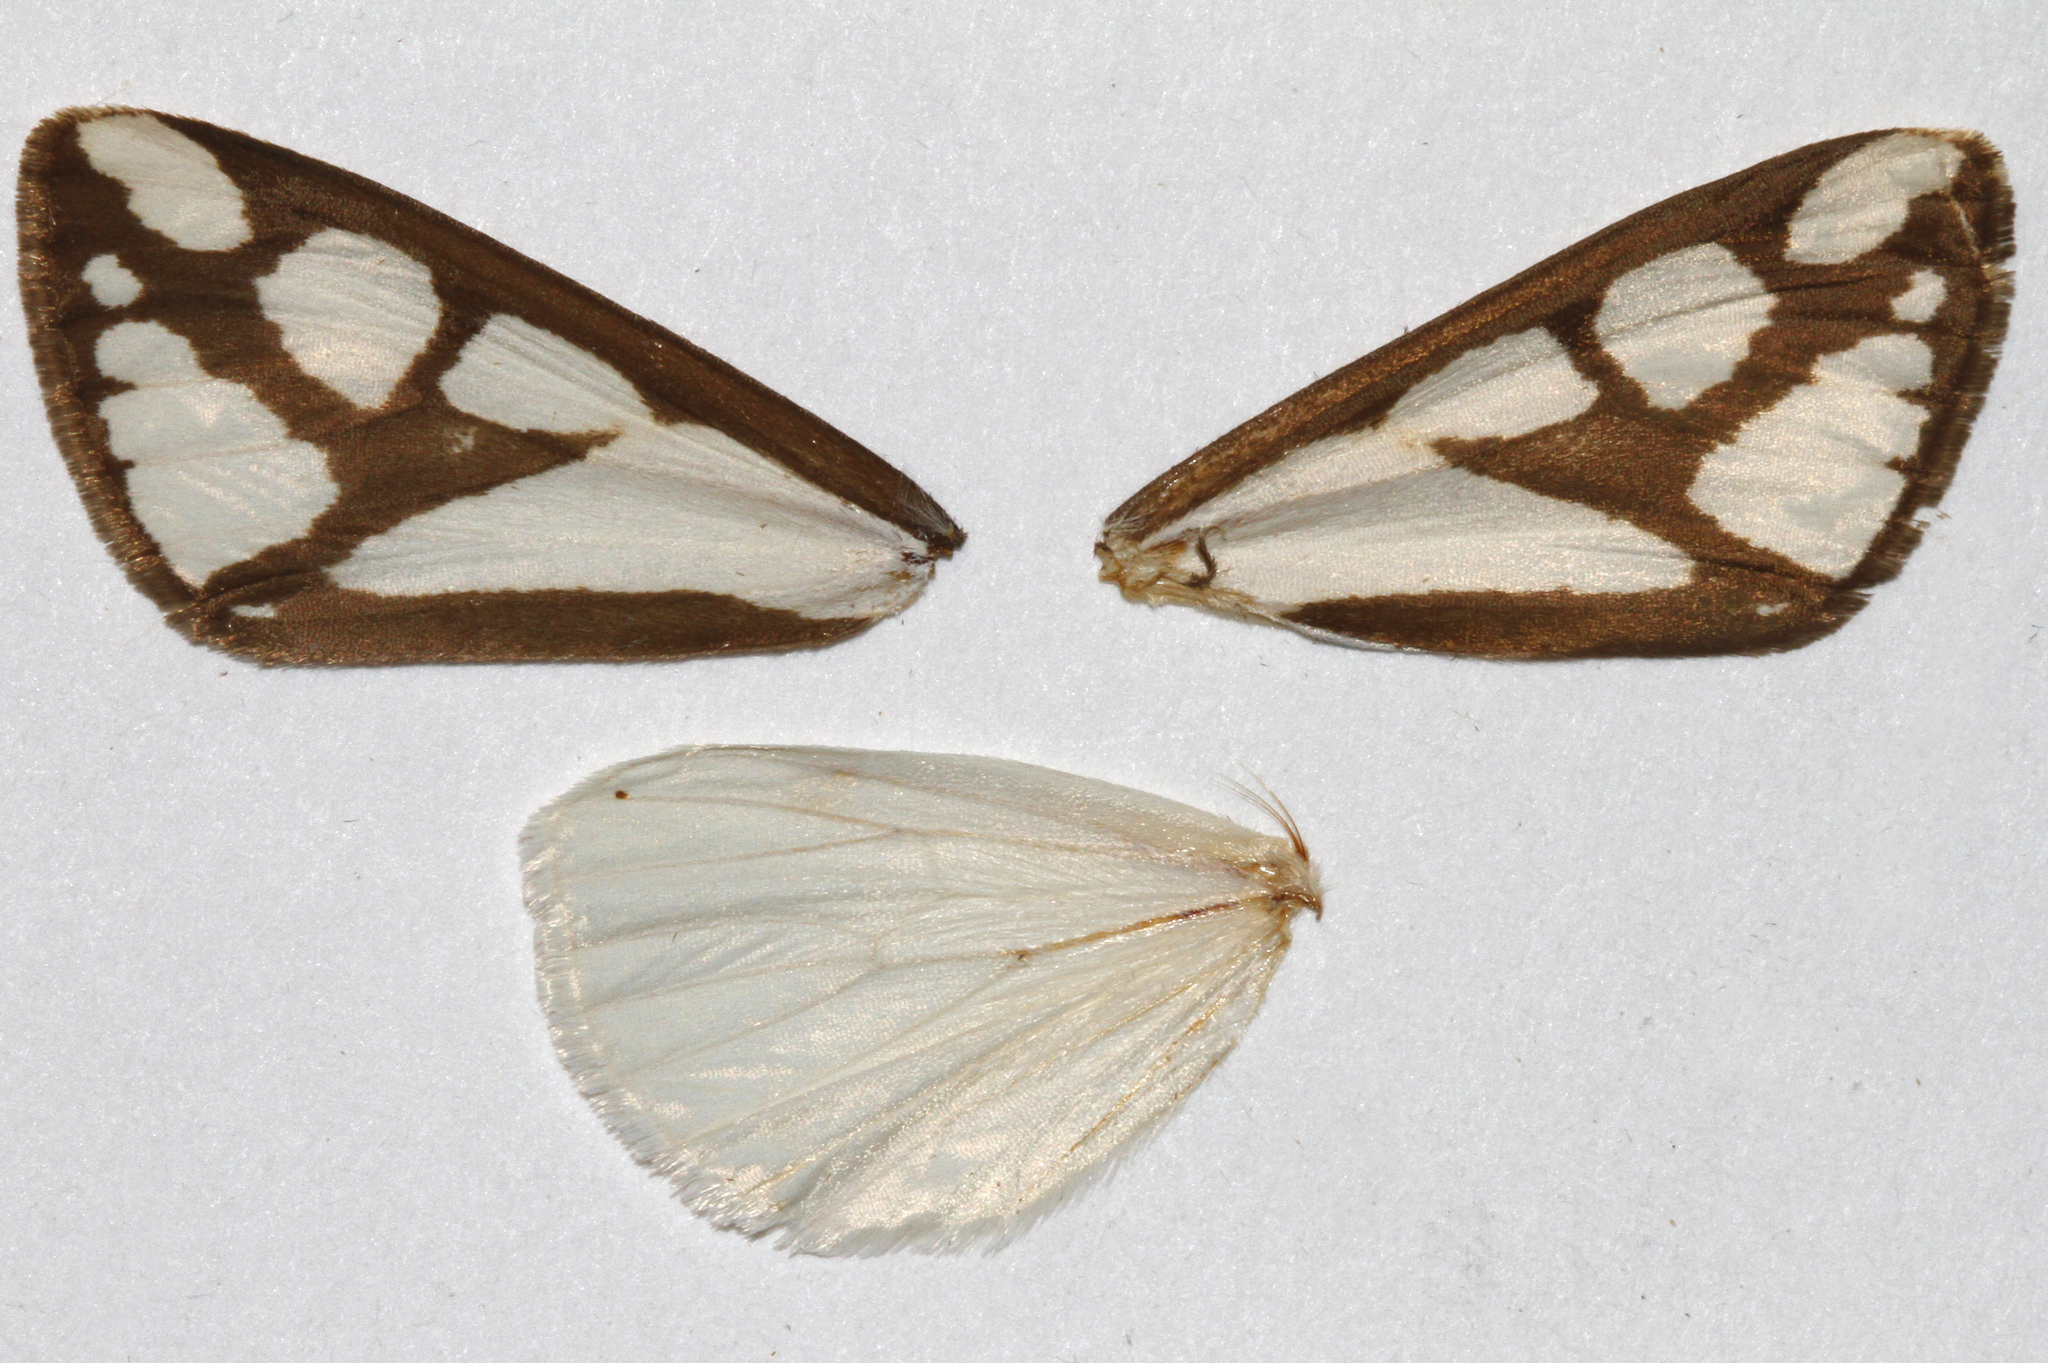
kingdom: Animalia
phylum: Arthropoda
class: Insecta
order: Lepidoptera
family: Erebidae
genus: Haploa
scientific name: Haploa reversa
